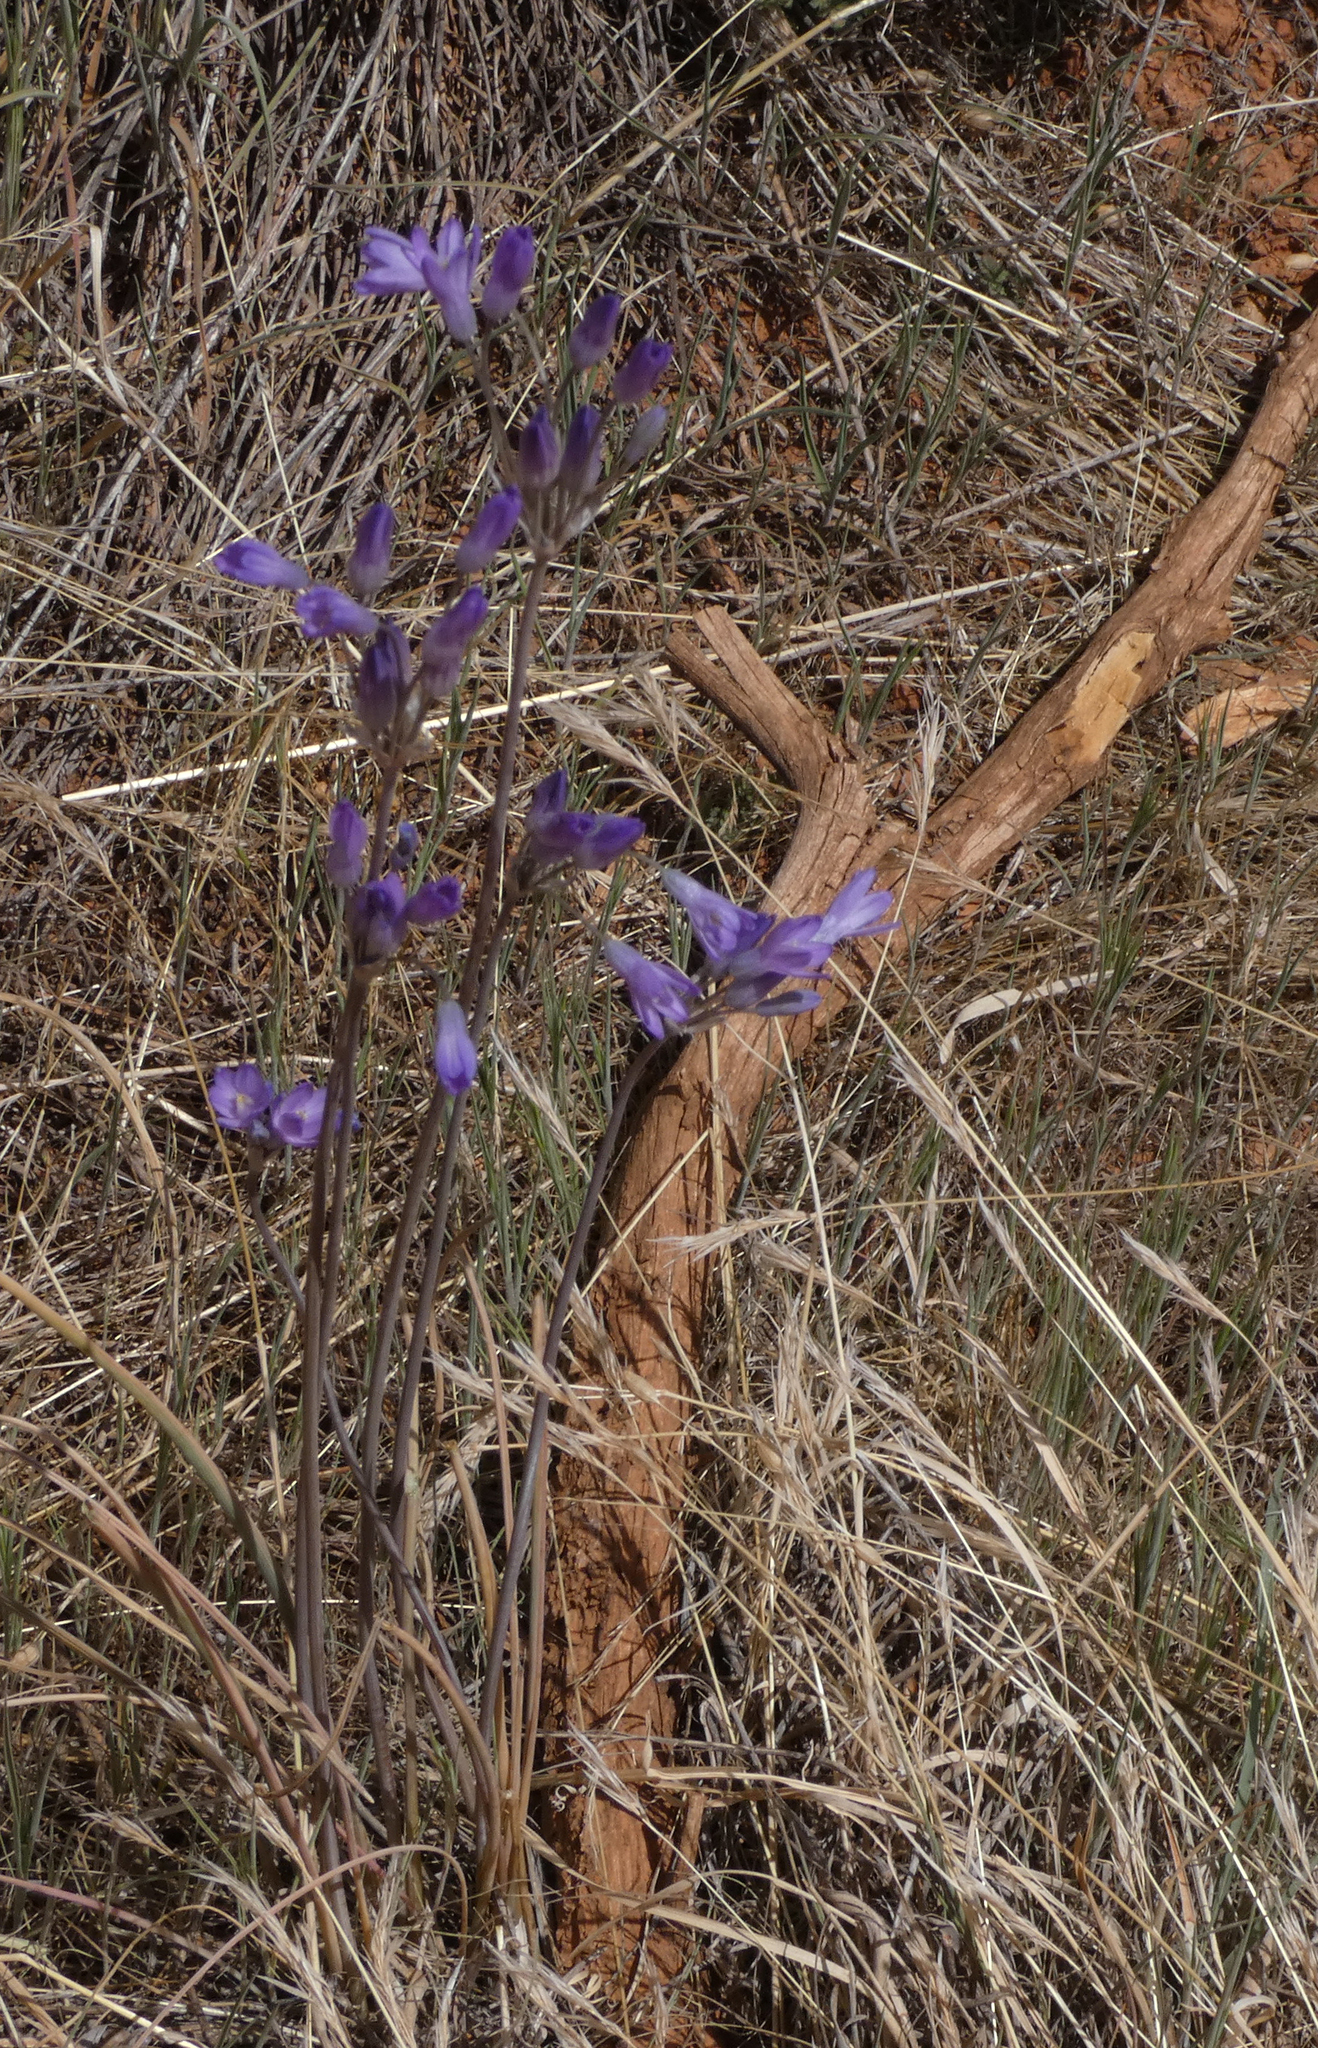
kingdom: Plantae
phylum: Tracheophyta
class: Liliopsida
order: Asparagales
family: Asparagaceae
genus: Dipterostemon
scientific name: Dipterostemon capitatus
